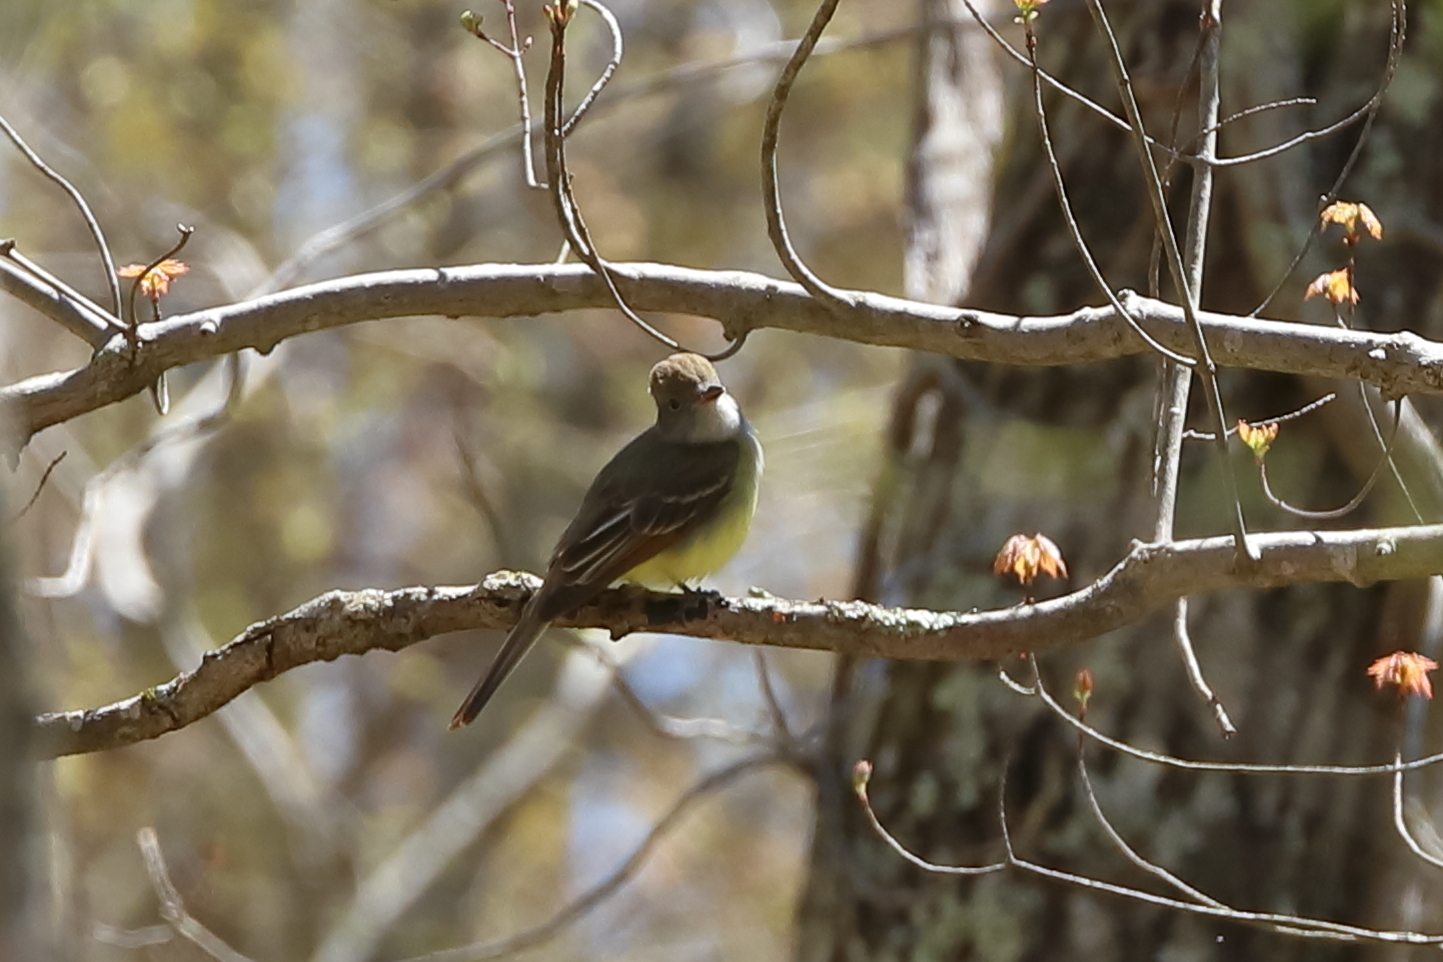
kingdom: Animalia
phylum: Chordata
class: Aves
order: Passeriformes
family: Tyrannidae
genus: Myiarchus
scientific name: Myiarchus crinitus
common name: Great crested flycatcher
